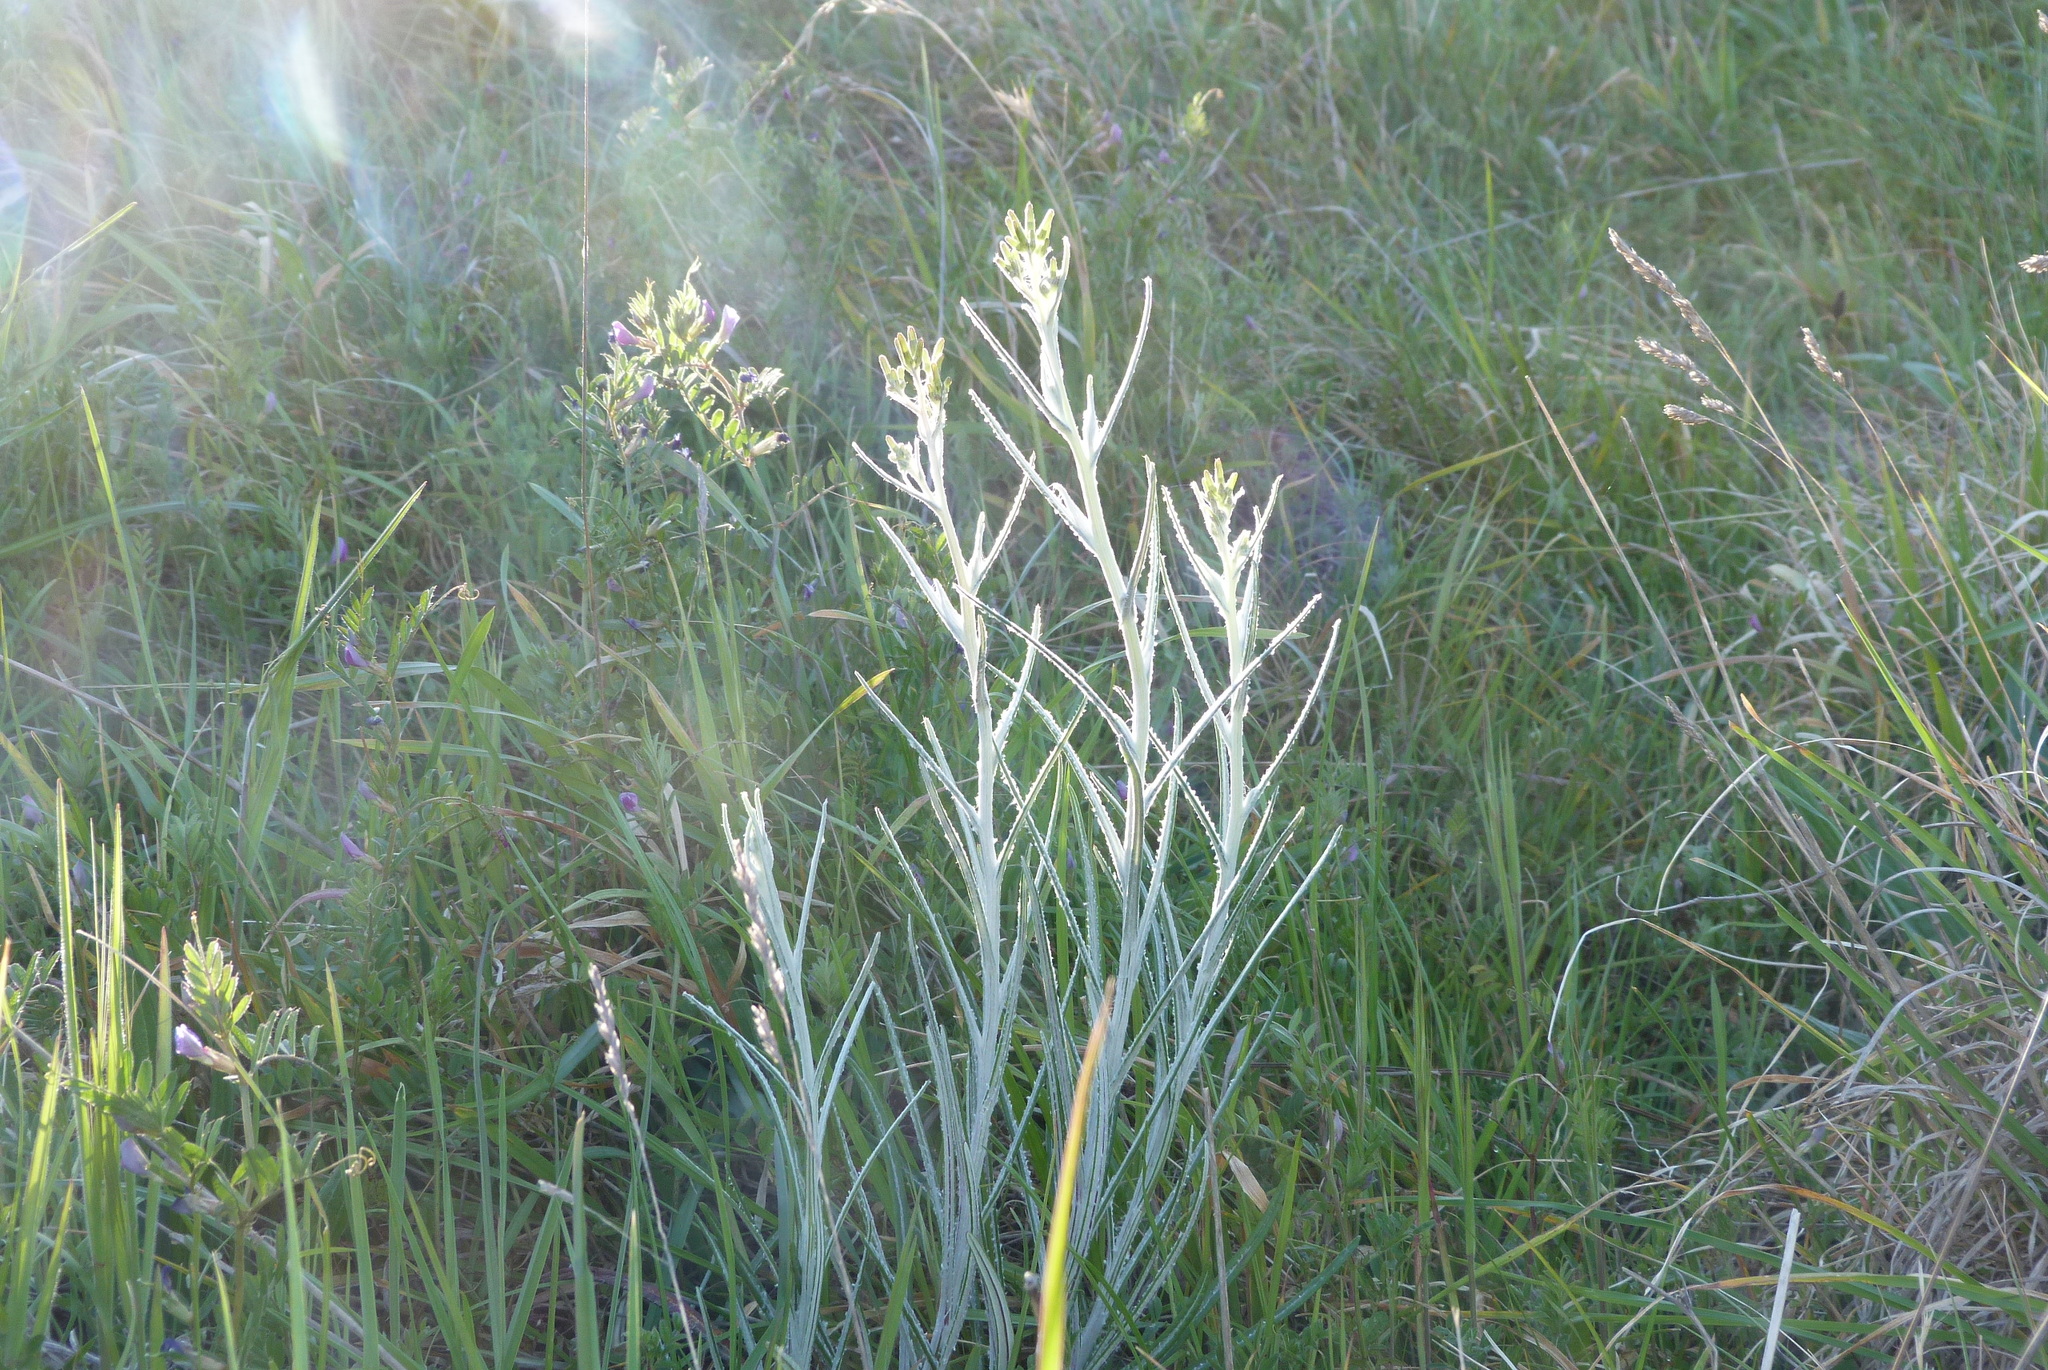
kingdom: Plantae
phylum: Tracheophyta
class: Magnoliopsida
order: Asterales
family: Asteraceae
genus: Senecio
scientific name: Senecio quadridentatus
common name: Cotton fireweed
